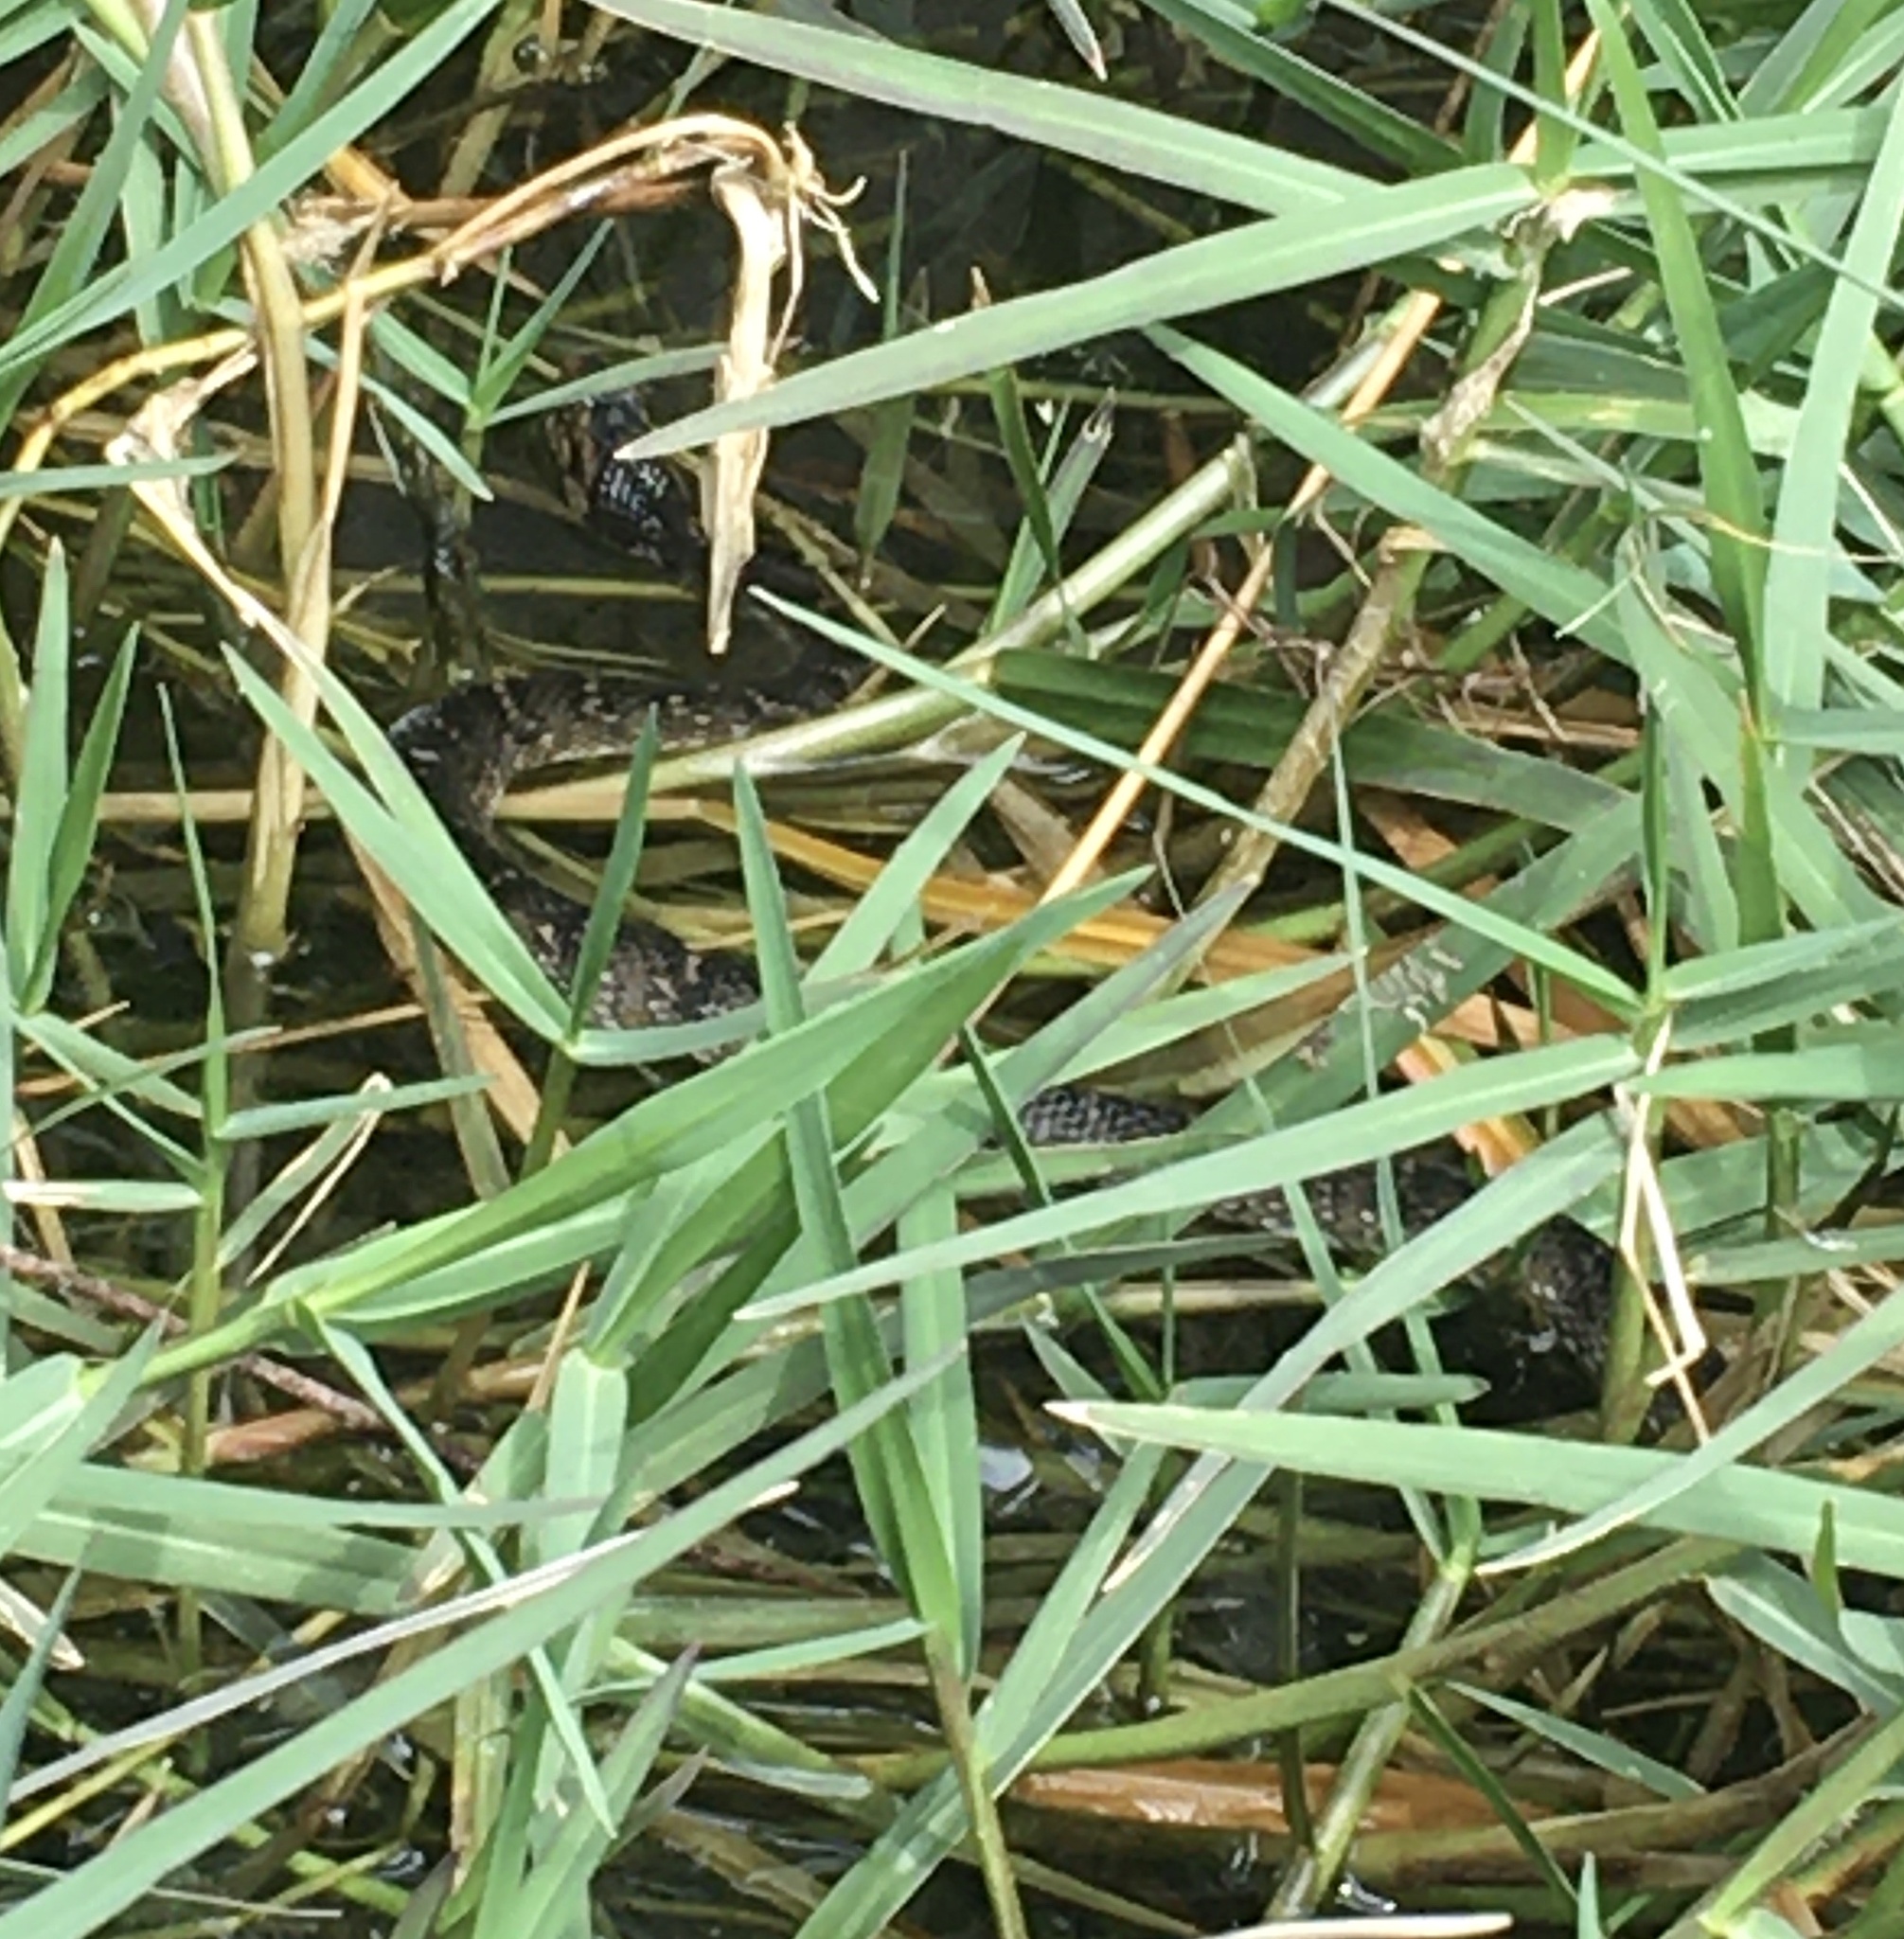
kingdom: Animalia
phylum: Chordata
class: Squamata
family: Colubridae
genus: Nerodia
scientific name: Nerodia fasciata
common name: Southern water snake
